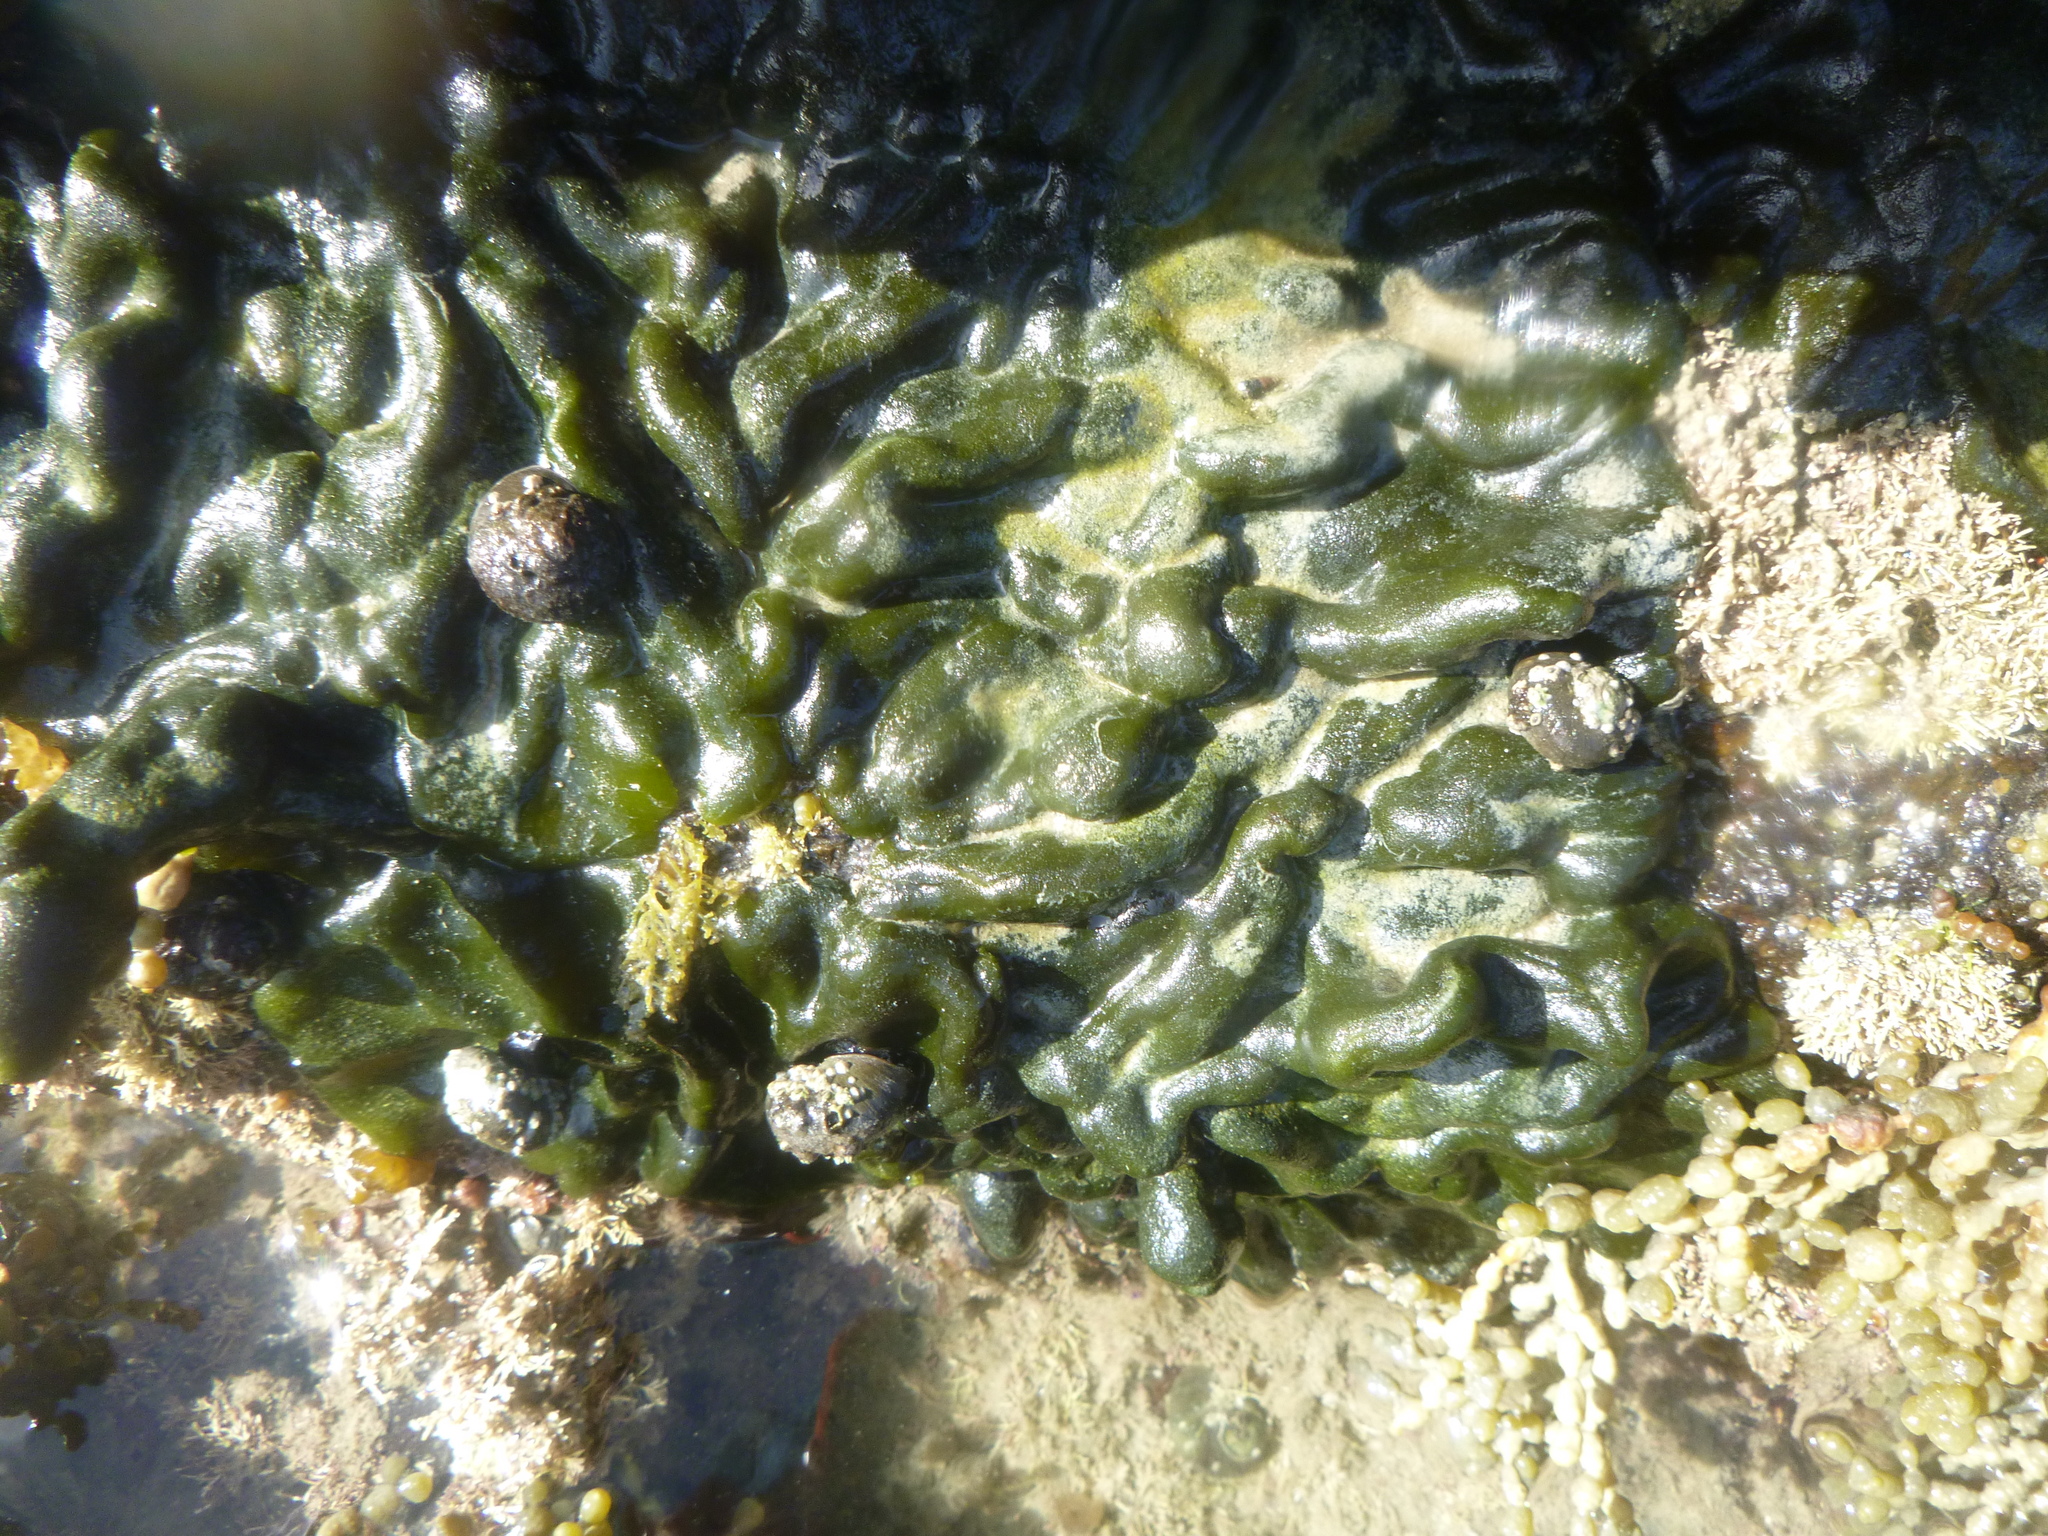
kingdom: Plantae
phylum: Chlorophyta
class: Ulvophyceae
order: Bryopsidales
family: Codiaceae
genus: Codium
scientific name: Codium convolutum
